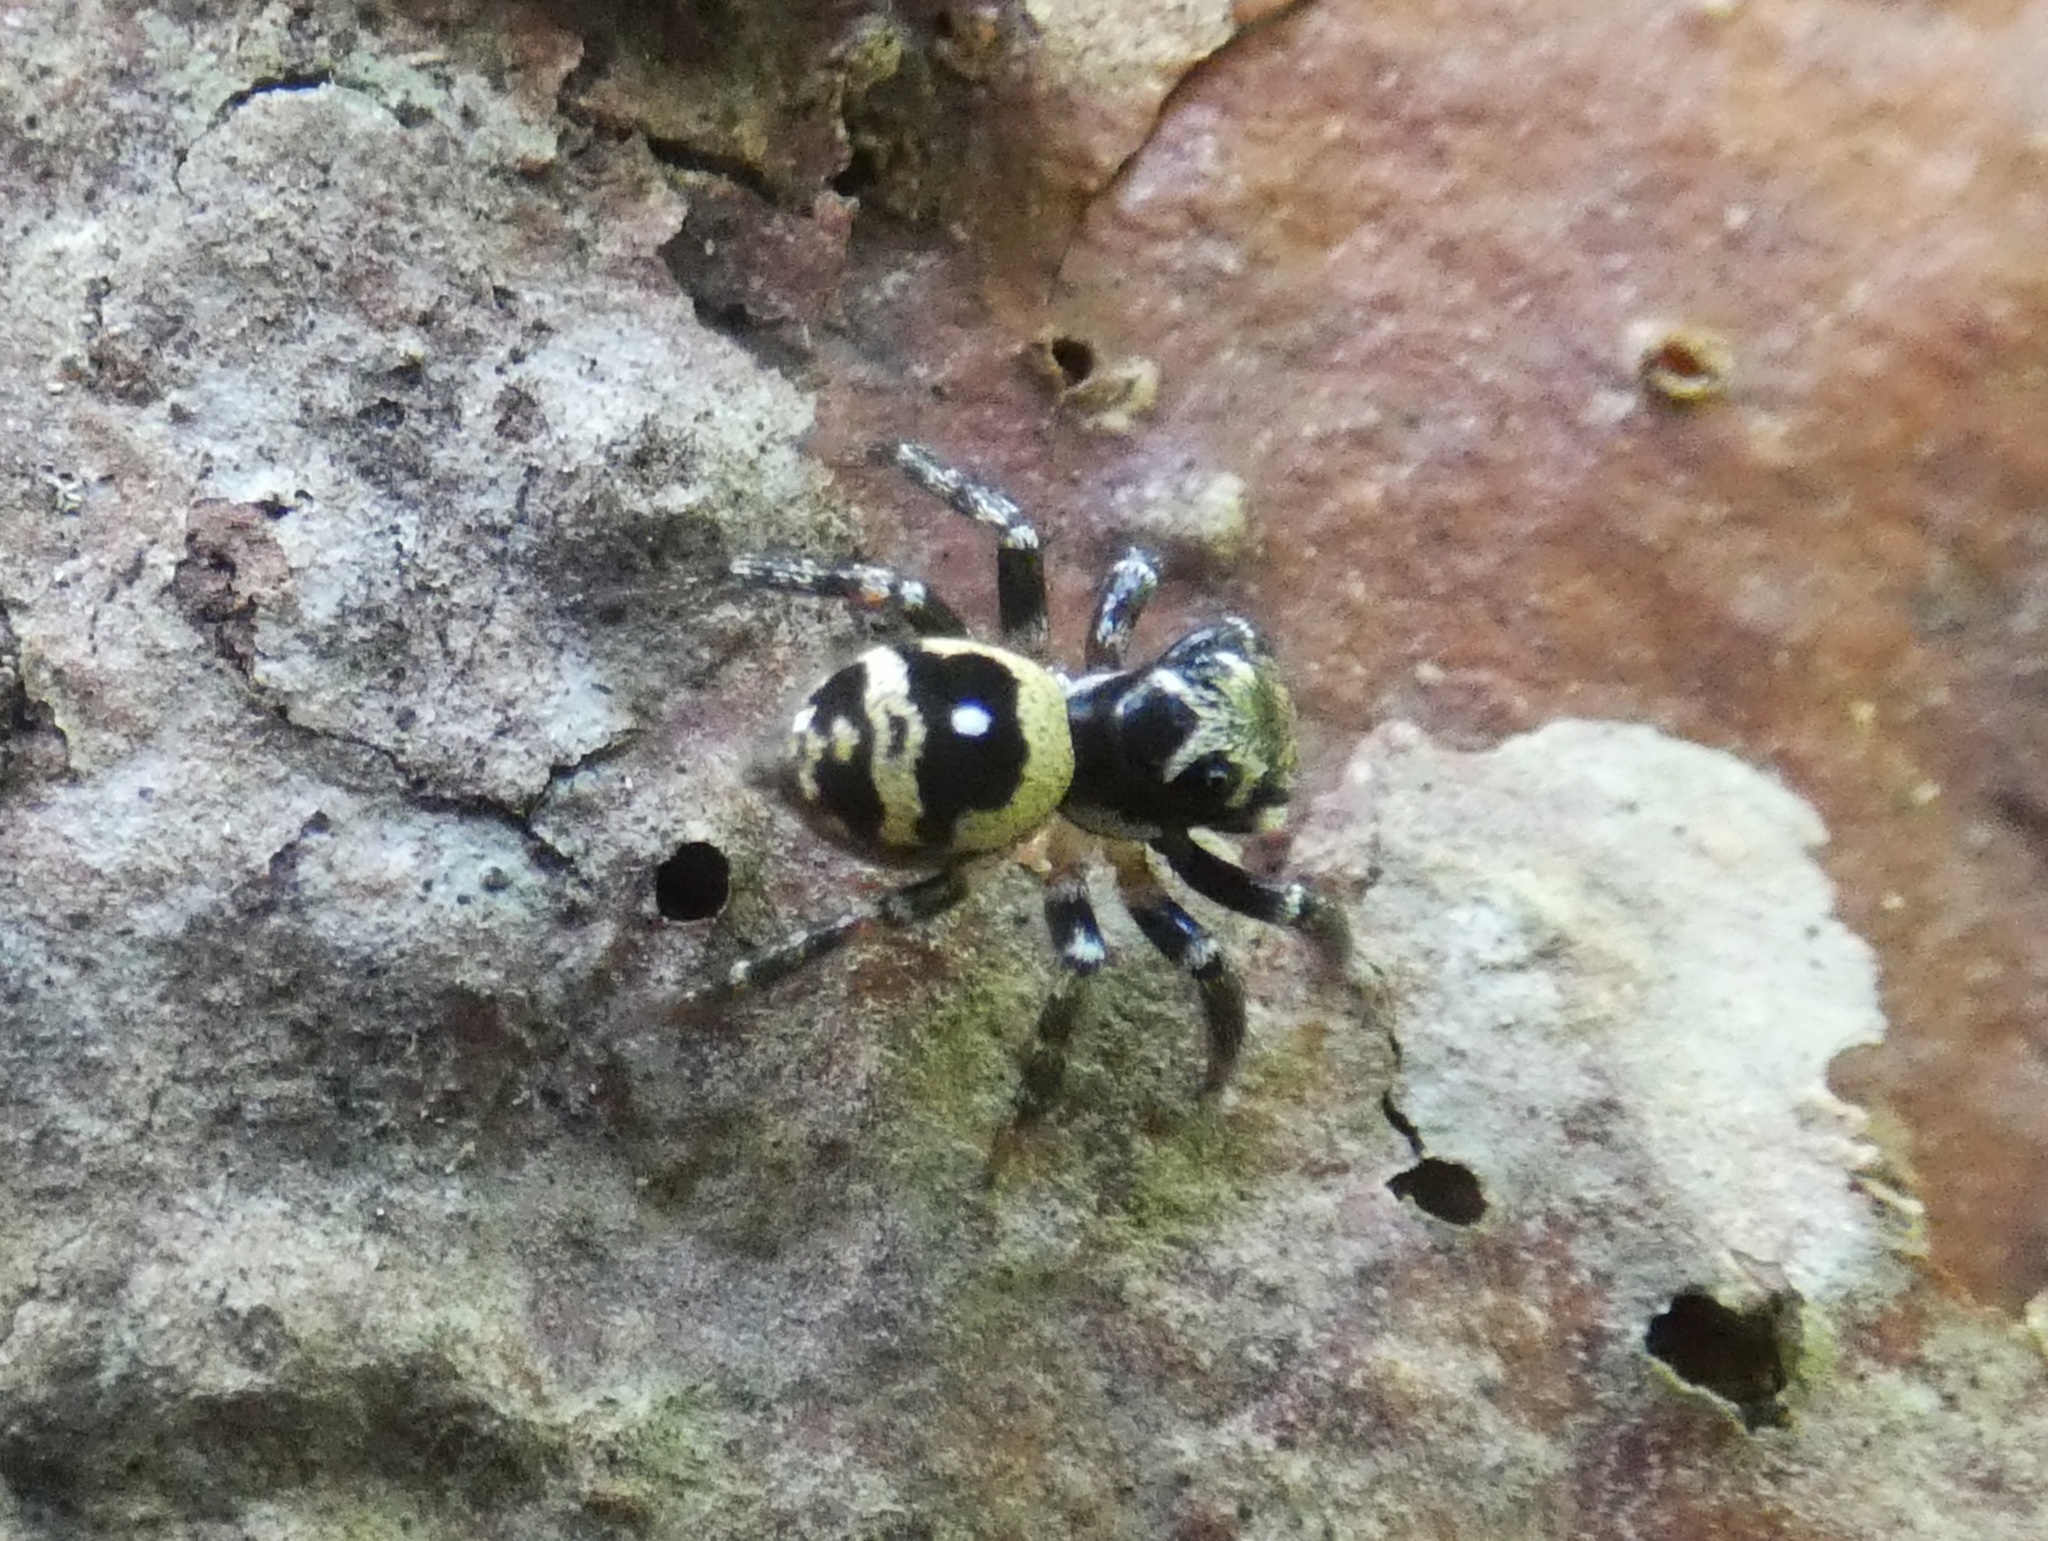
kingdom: Animalia
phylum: Arthropoda
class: Arachnida
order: Araneae
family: Salticidae
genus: Corythalia
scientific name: Corythalia bicincta
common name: Jumping spiders
